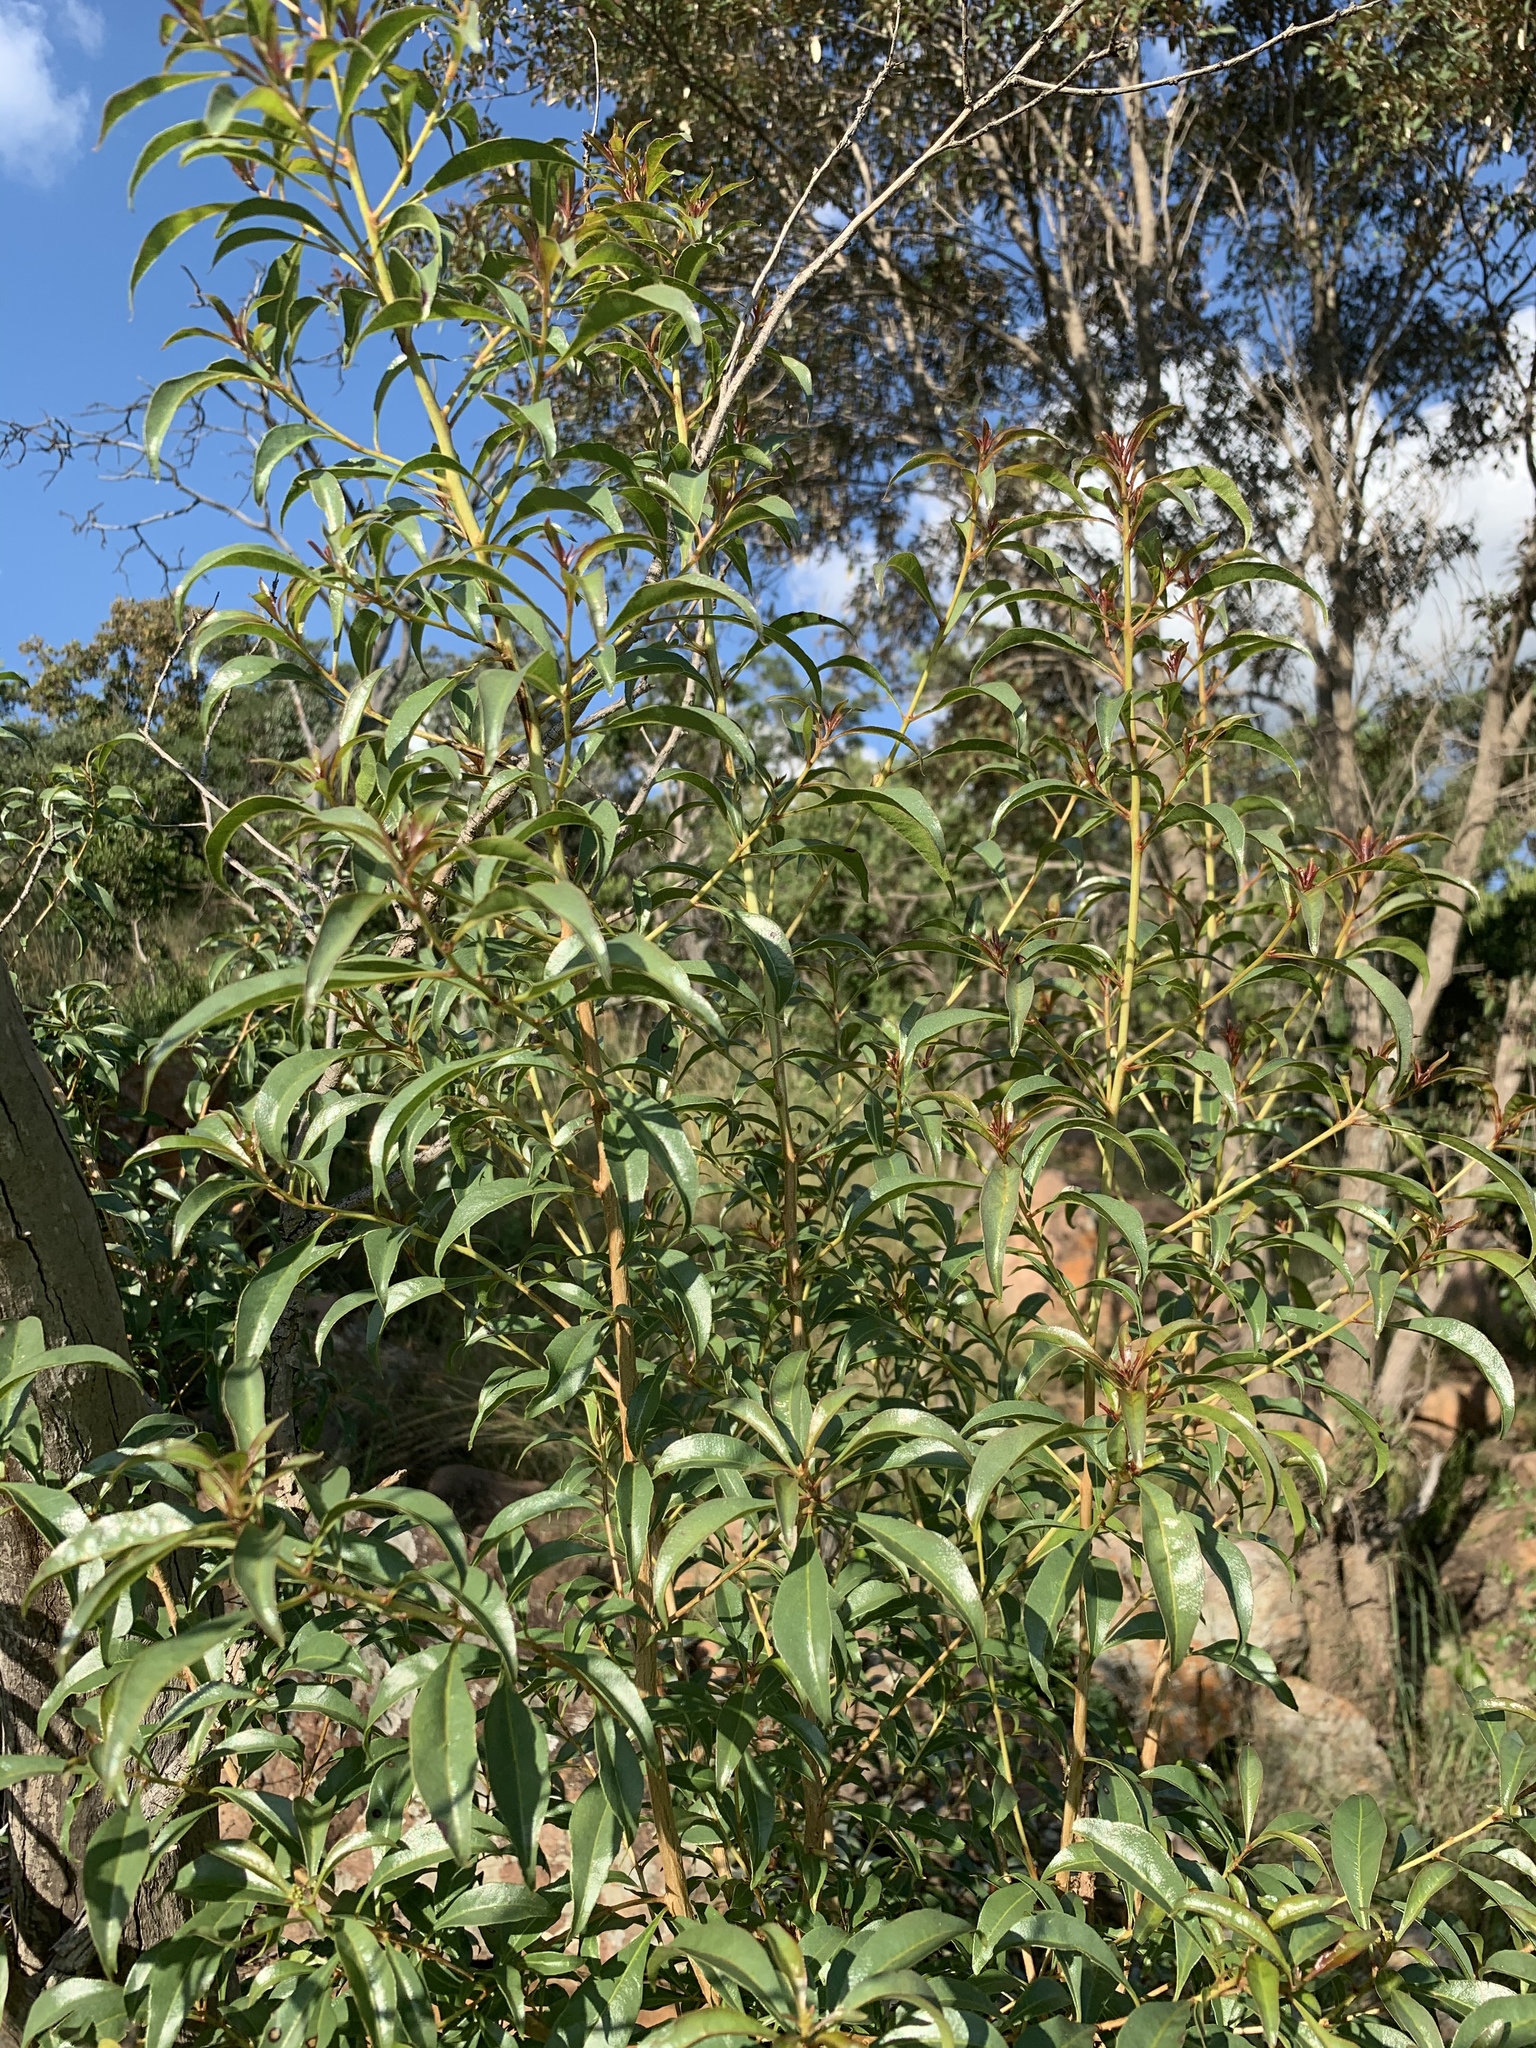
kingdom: Plantae
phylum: Tracheophyta
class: Magnoliopsida
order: Myrtales
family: Myrtaceae
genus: Heteropyxis
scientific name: Heteropyxis natalensis
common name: Lavender tree
